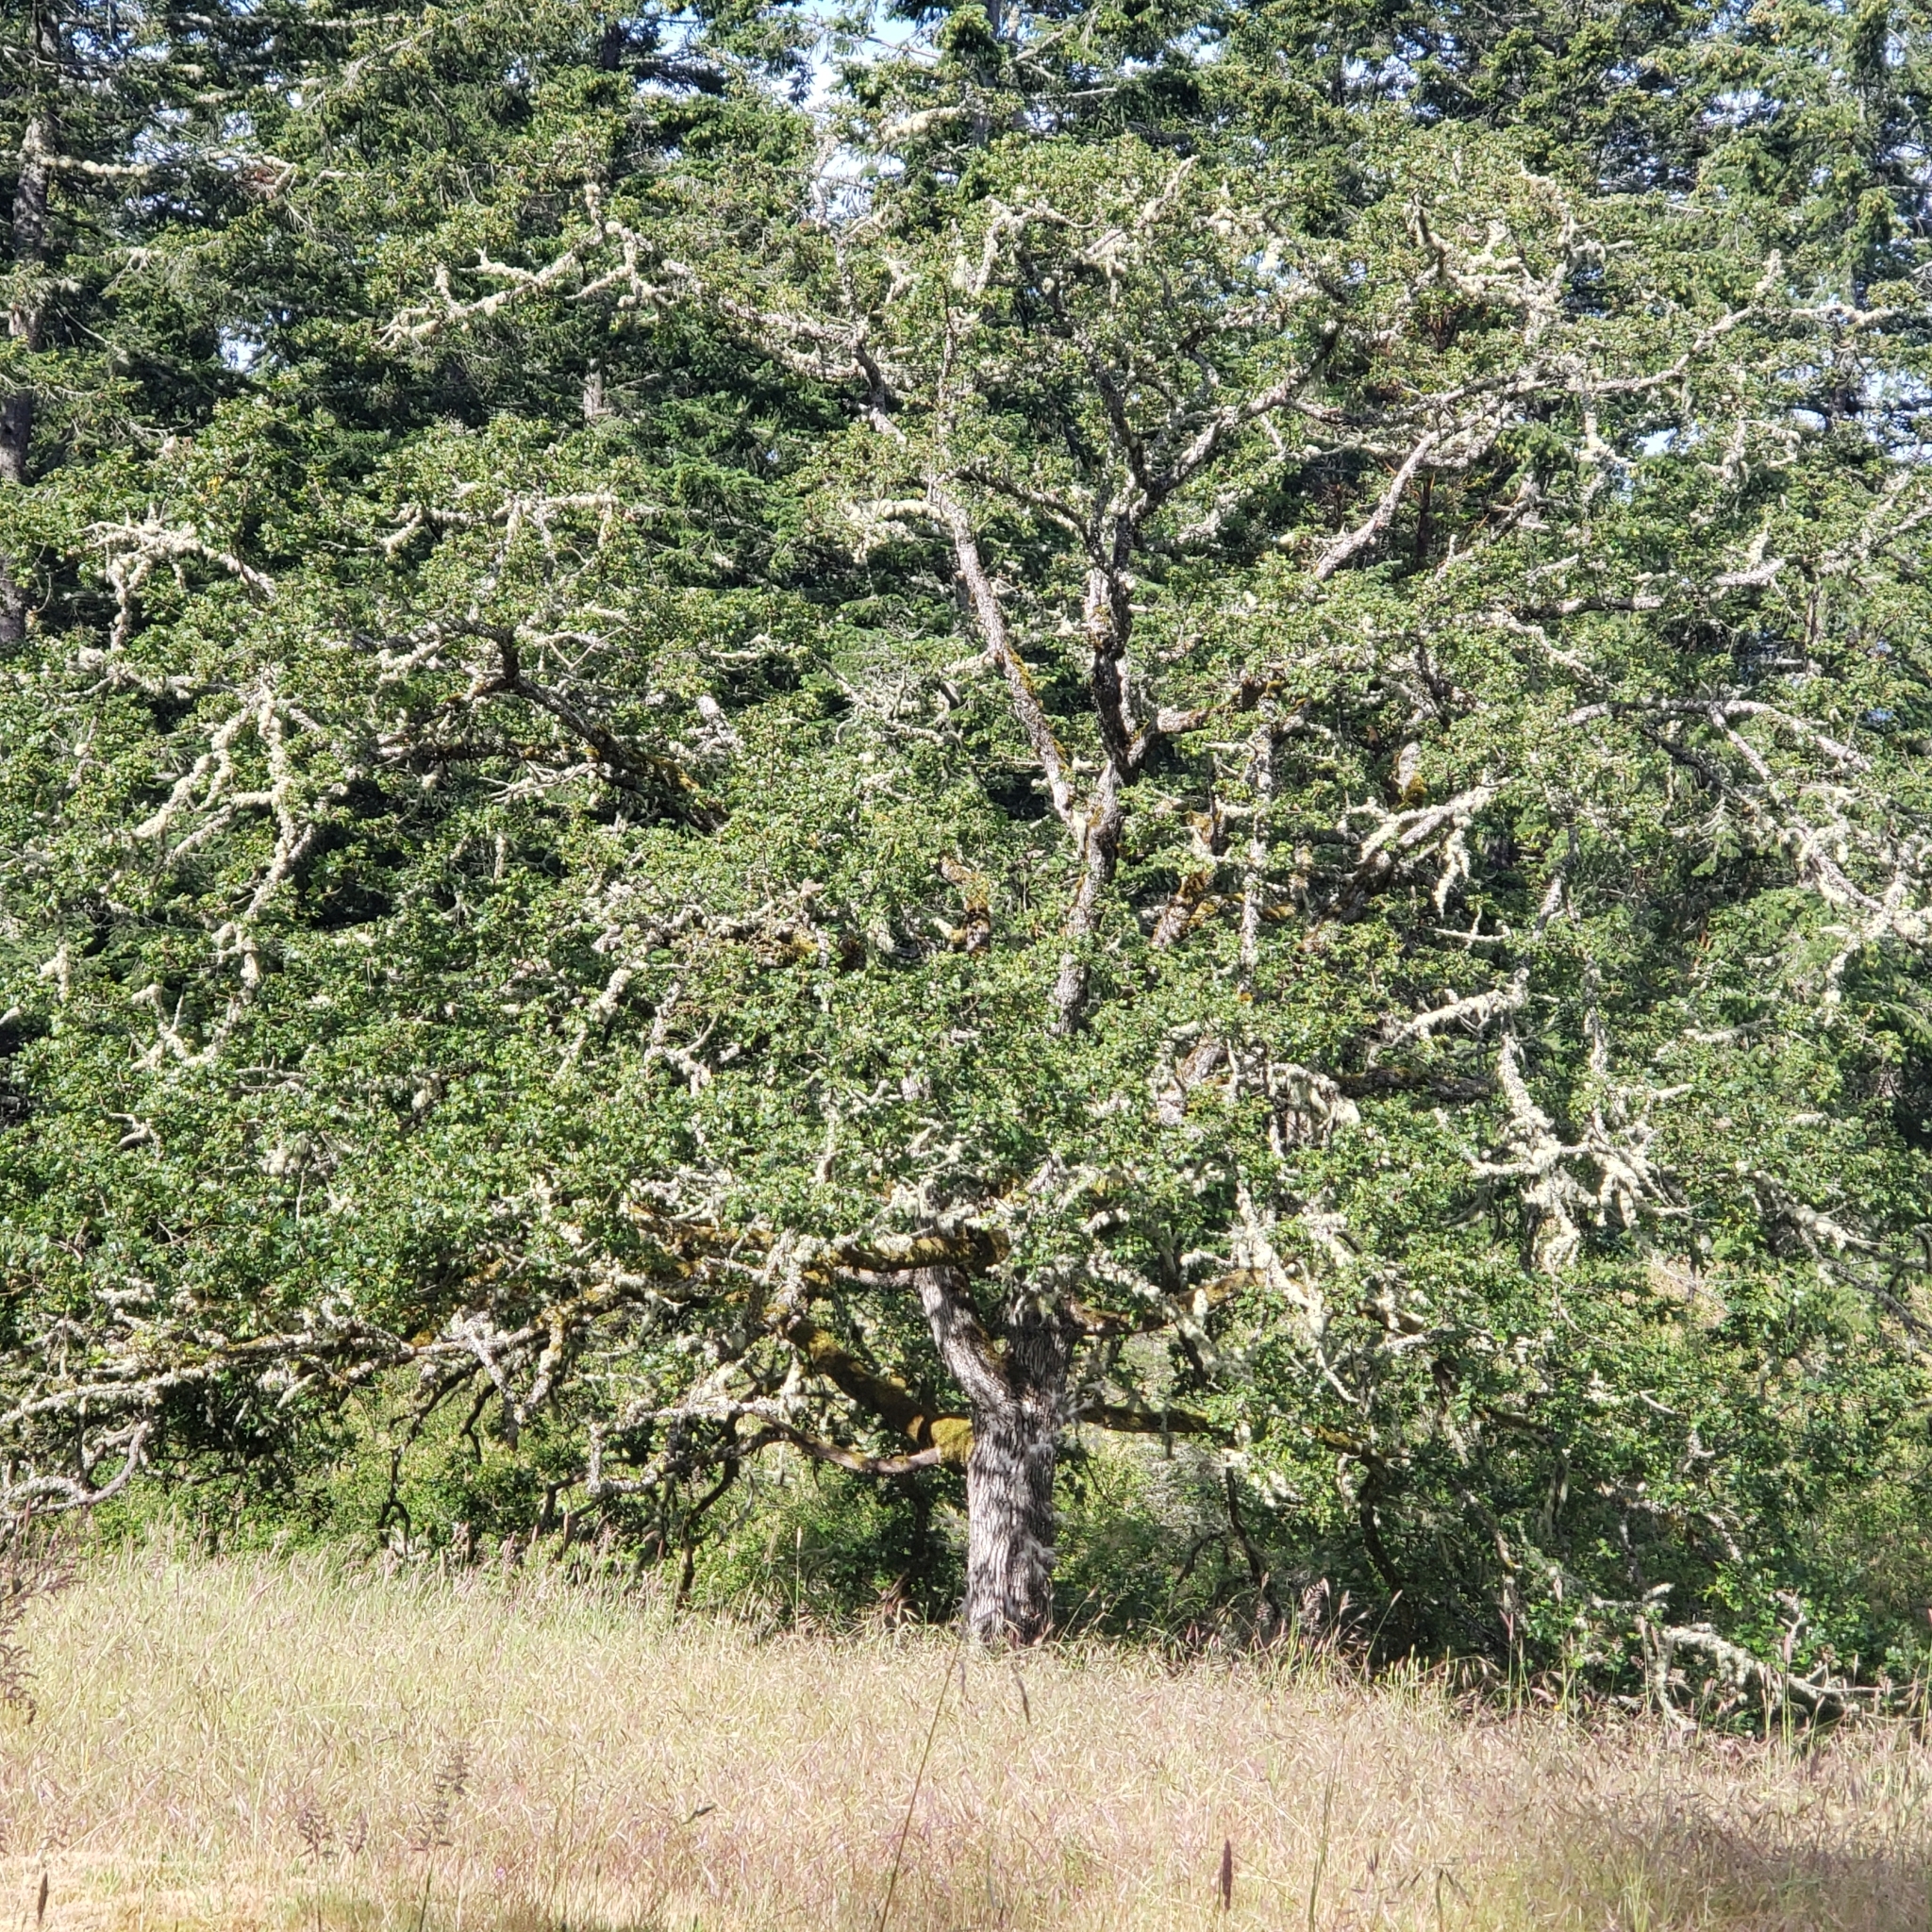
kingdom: Plantae
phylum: Tracheophyta
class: Magnoliopsida
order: Fagales
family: Fagaceae
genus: Quercus
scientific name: Quercus garryana
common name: Garry oak
